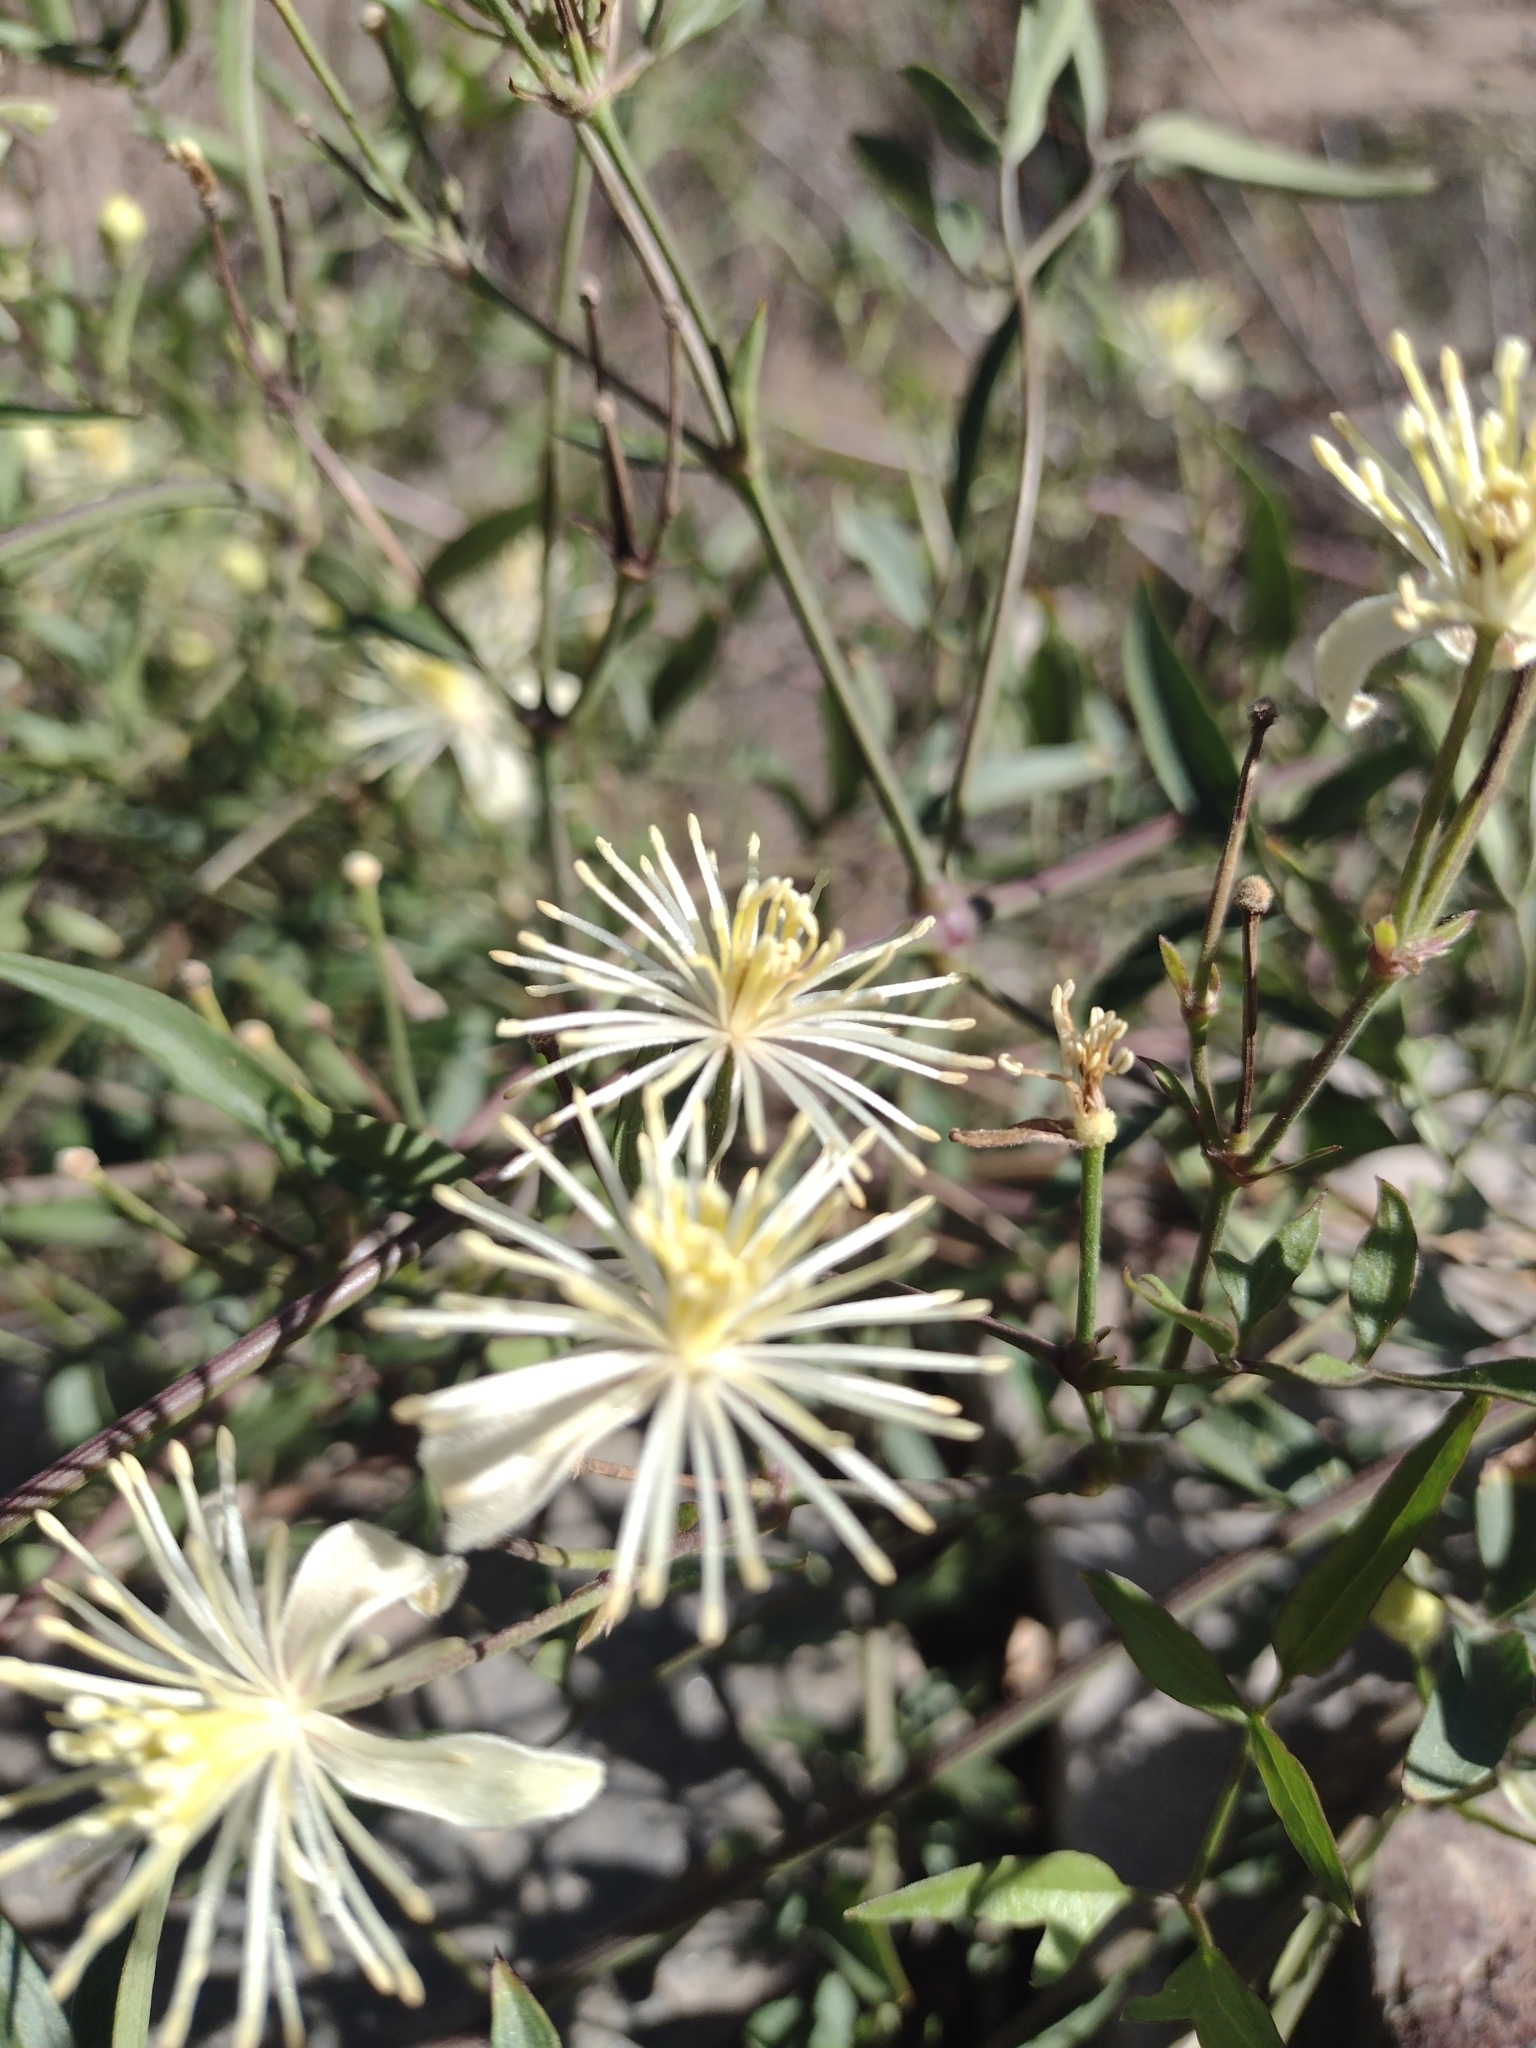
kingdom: Plantae
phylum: Tracheophyta
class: Magnoliopsida
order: Ranunculales
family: Ranunculaceae
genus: Clematis
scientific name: Clematis montevidensis
